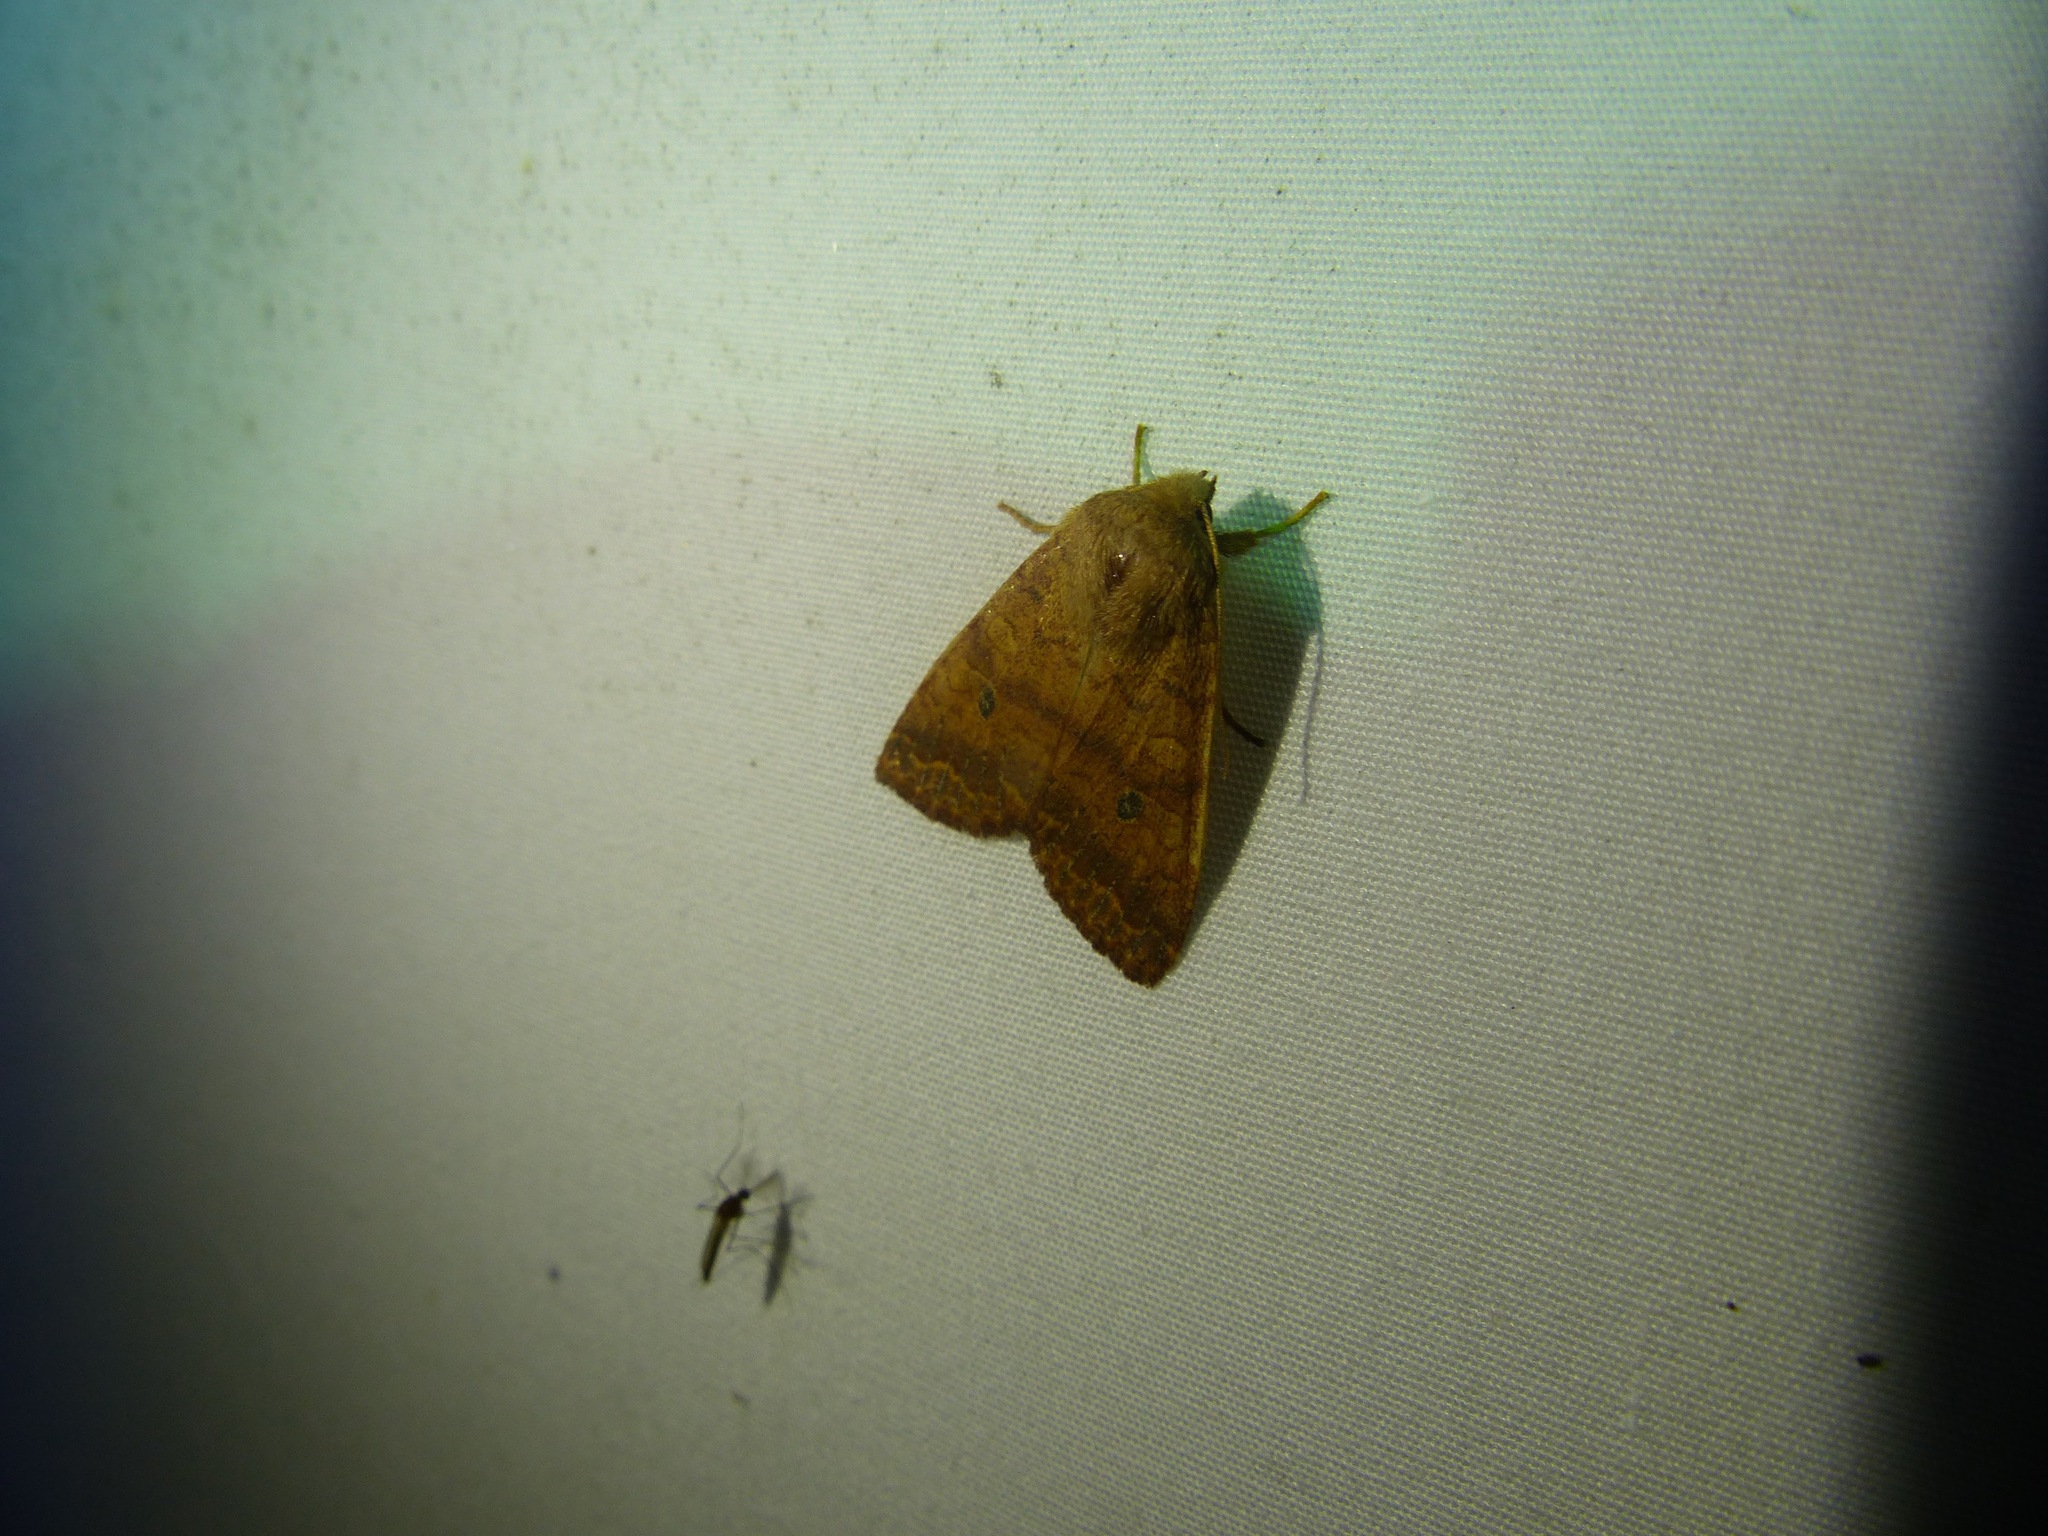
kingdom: Animalia
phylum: Arthropoda
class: Insecta
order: Lepidoptera
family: Noctuidae
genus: Agrochola
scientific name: Agrochola bicolorago
